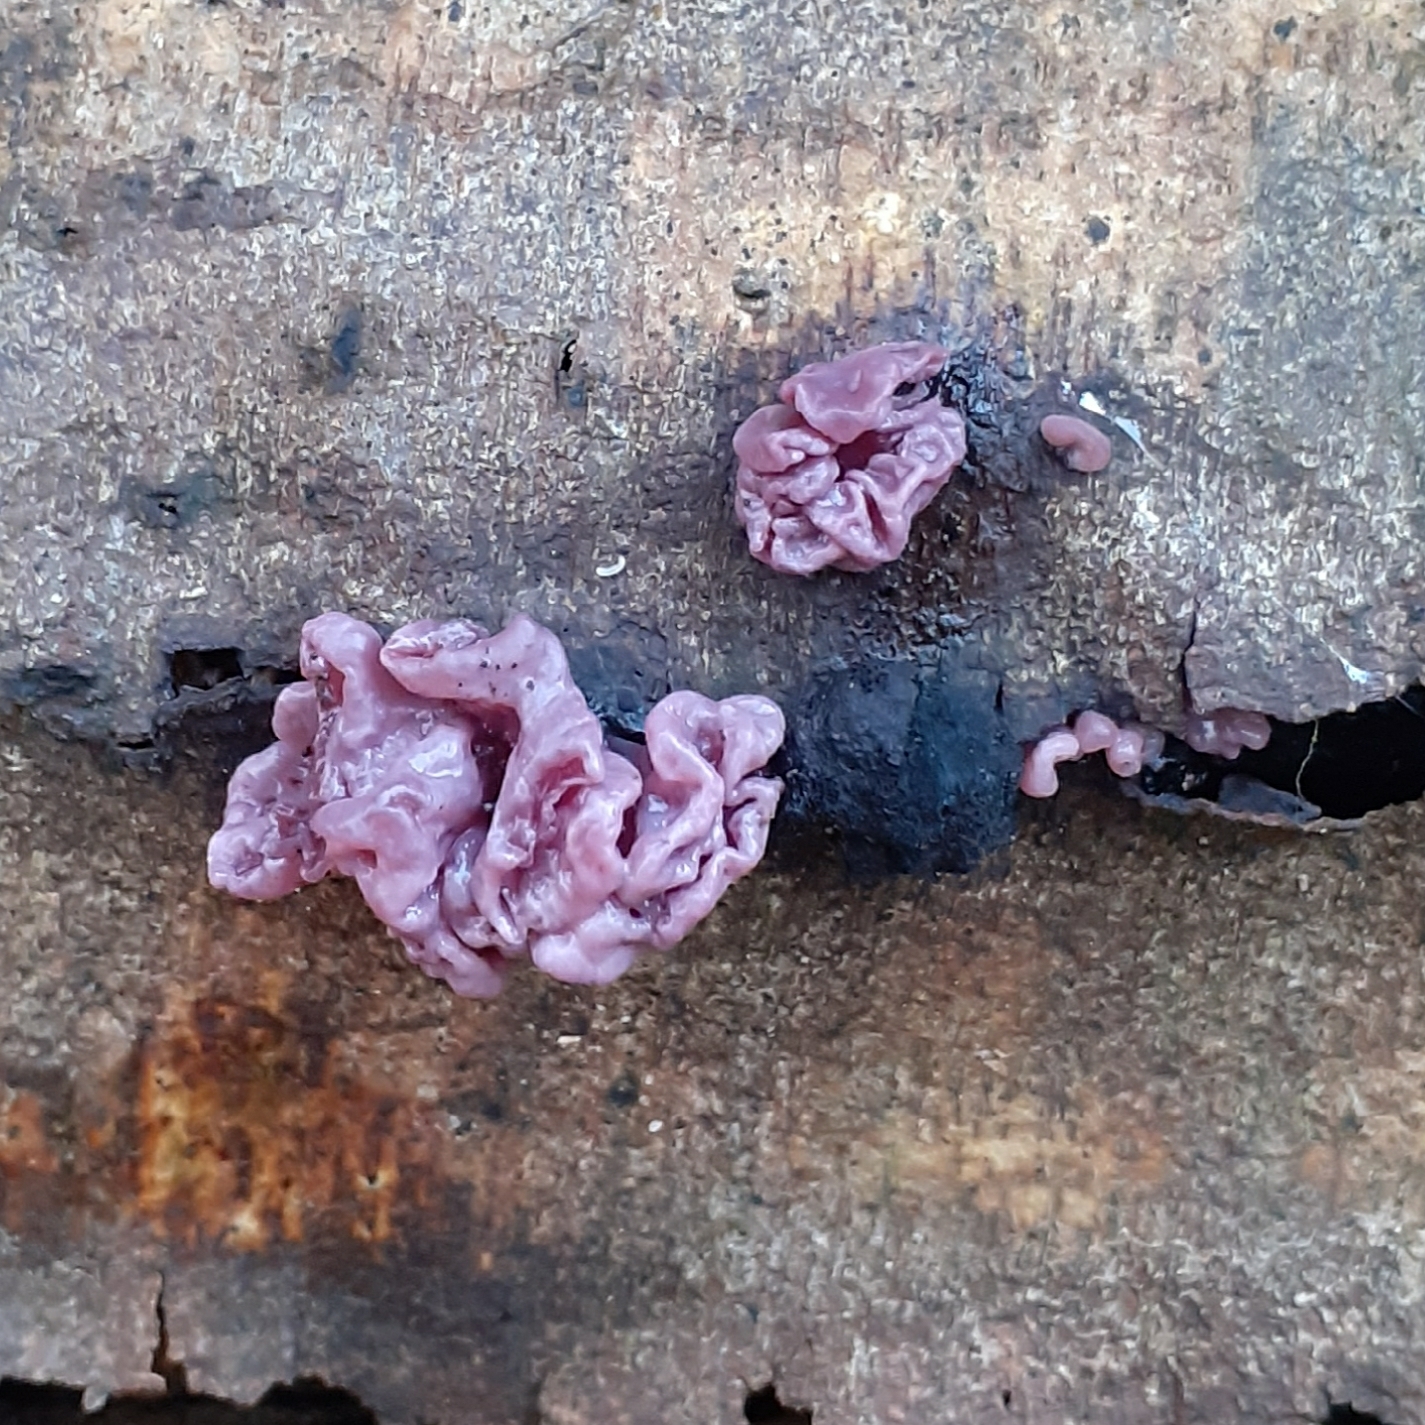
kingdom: Fungi
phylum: Ascomycota
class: Leotiomycetes
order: Helotiales
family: Gelatinodiscaceae
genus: Ascocoryne
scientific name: Ascocoryne sarcoides
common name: Purple jellydisc
